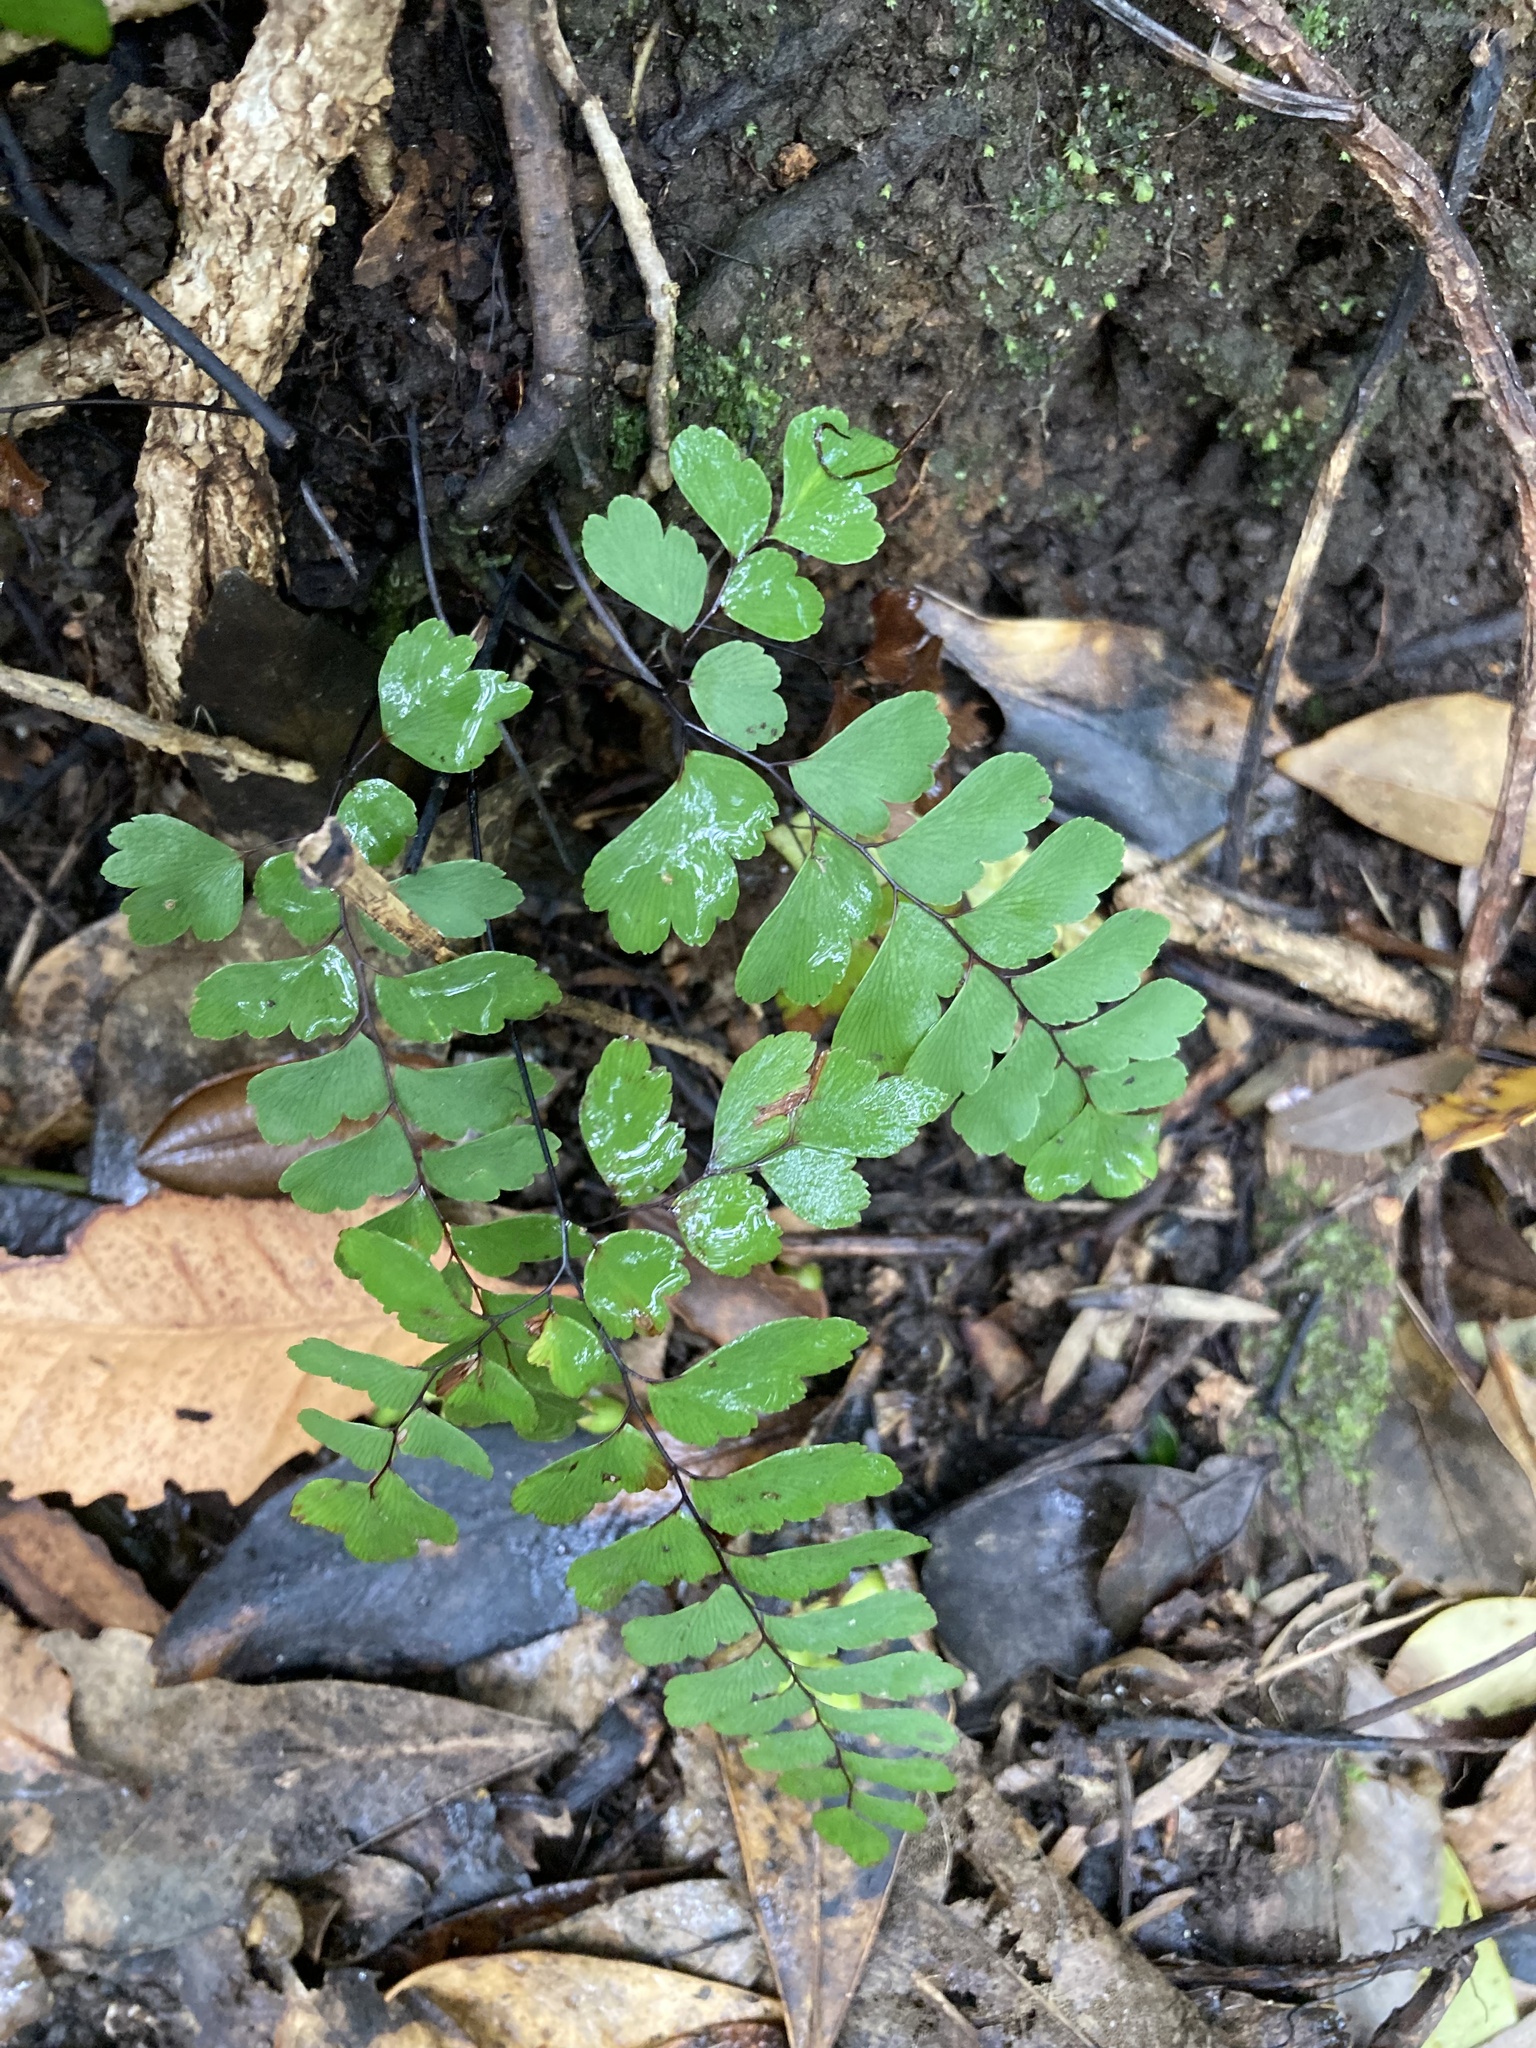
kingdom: Plantae
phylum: Tracheophyta
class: Polypodiopsida
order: Polypodiales
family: Pteridaceae
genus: Adiantum
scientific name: Adiantum cunninghamii
